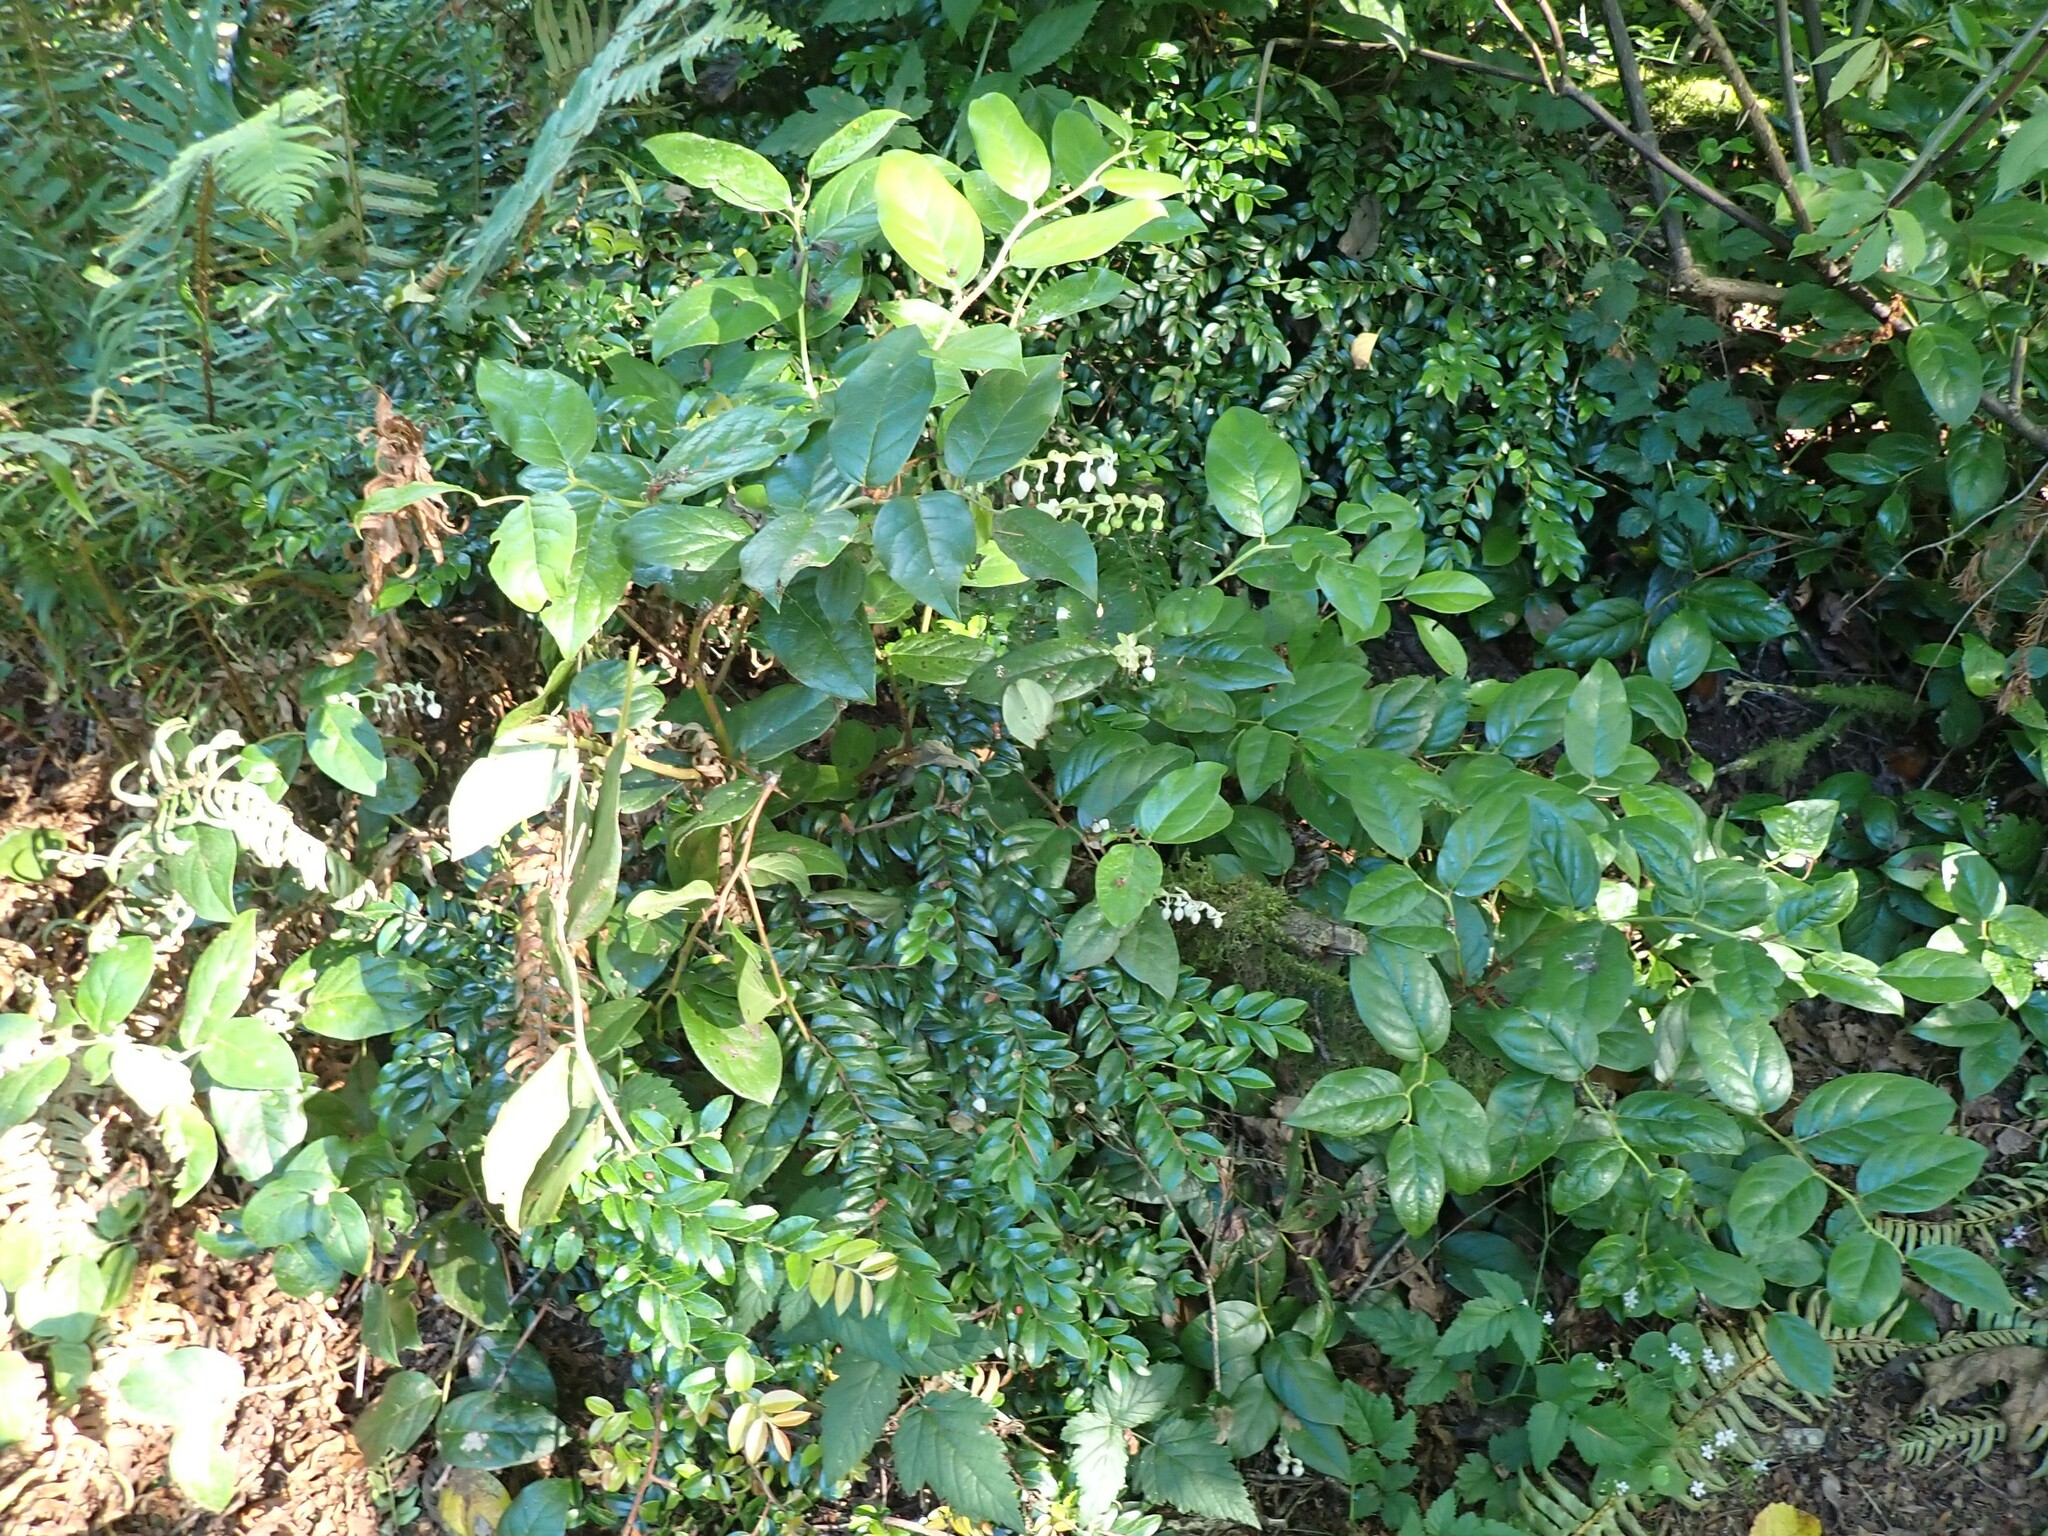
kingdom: Plantae
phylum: Tracheophyta
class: Magnoliopsida
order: Ericales
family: Ericaceae
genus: Vaccinium
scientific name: Vaccinium ovatum
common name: California-huckleberry
